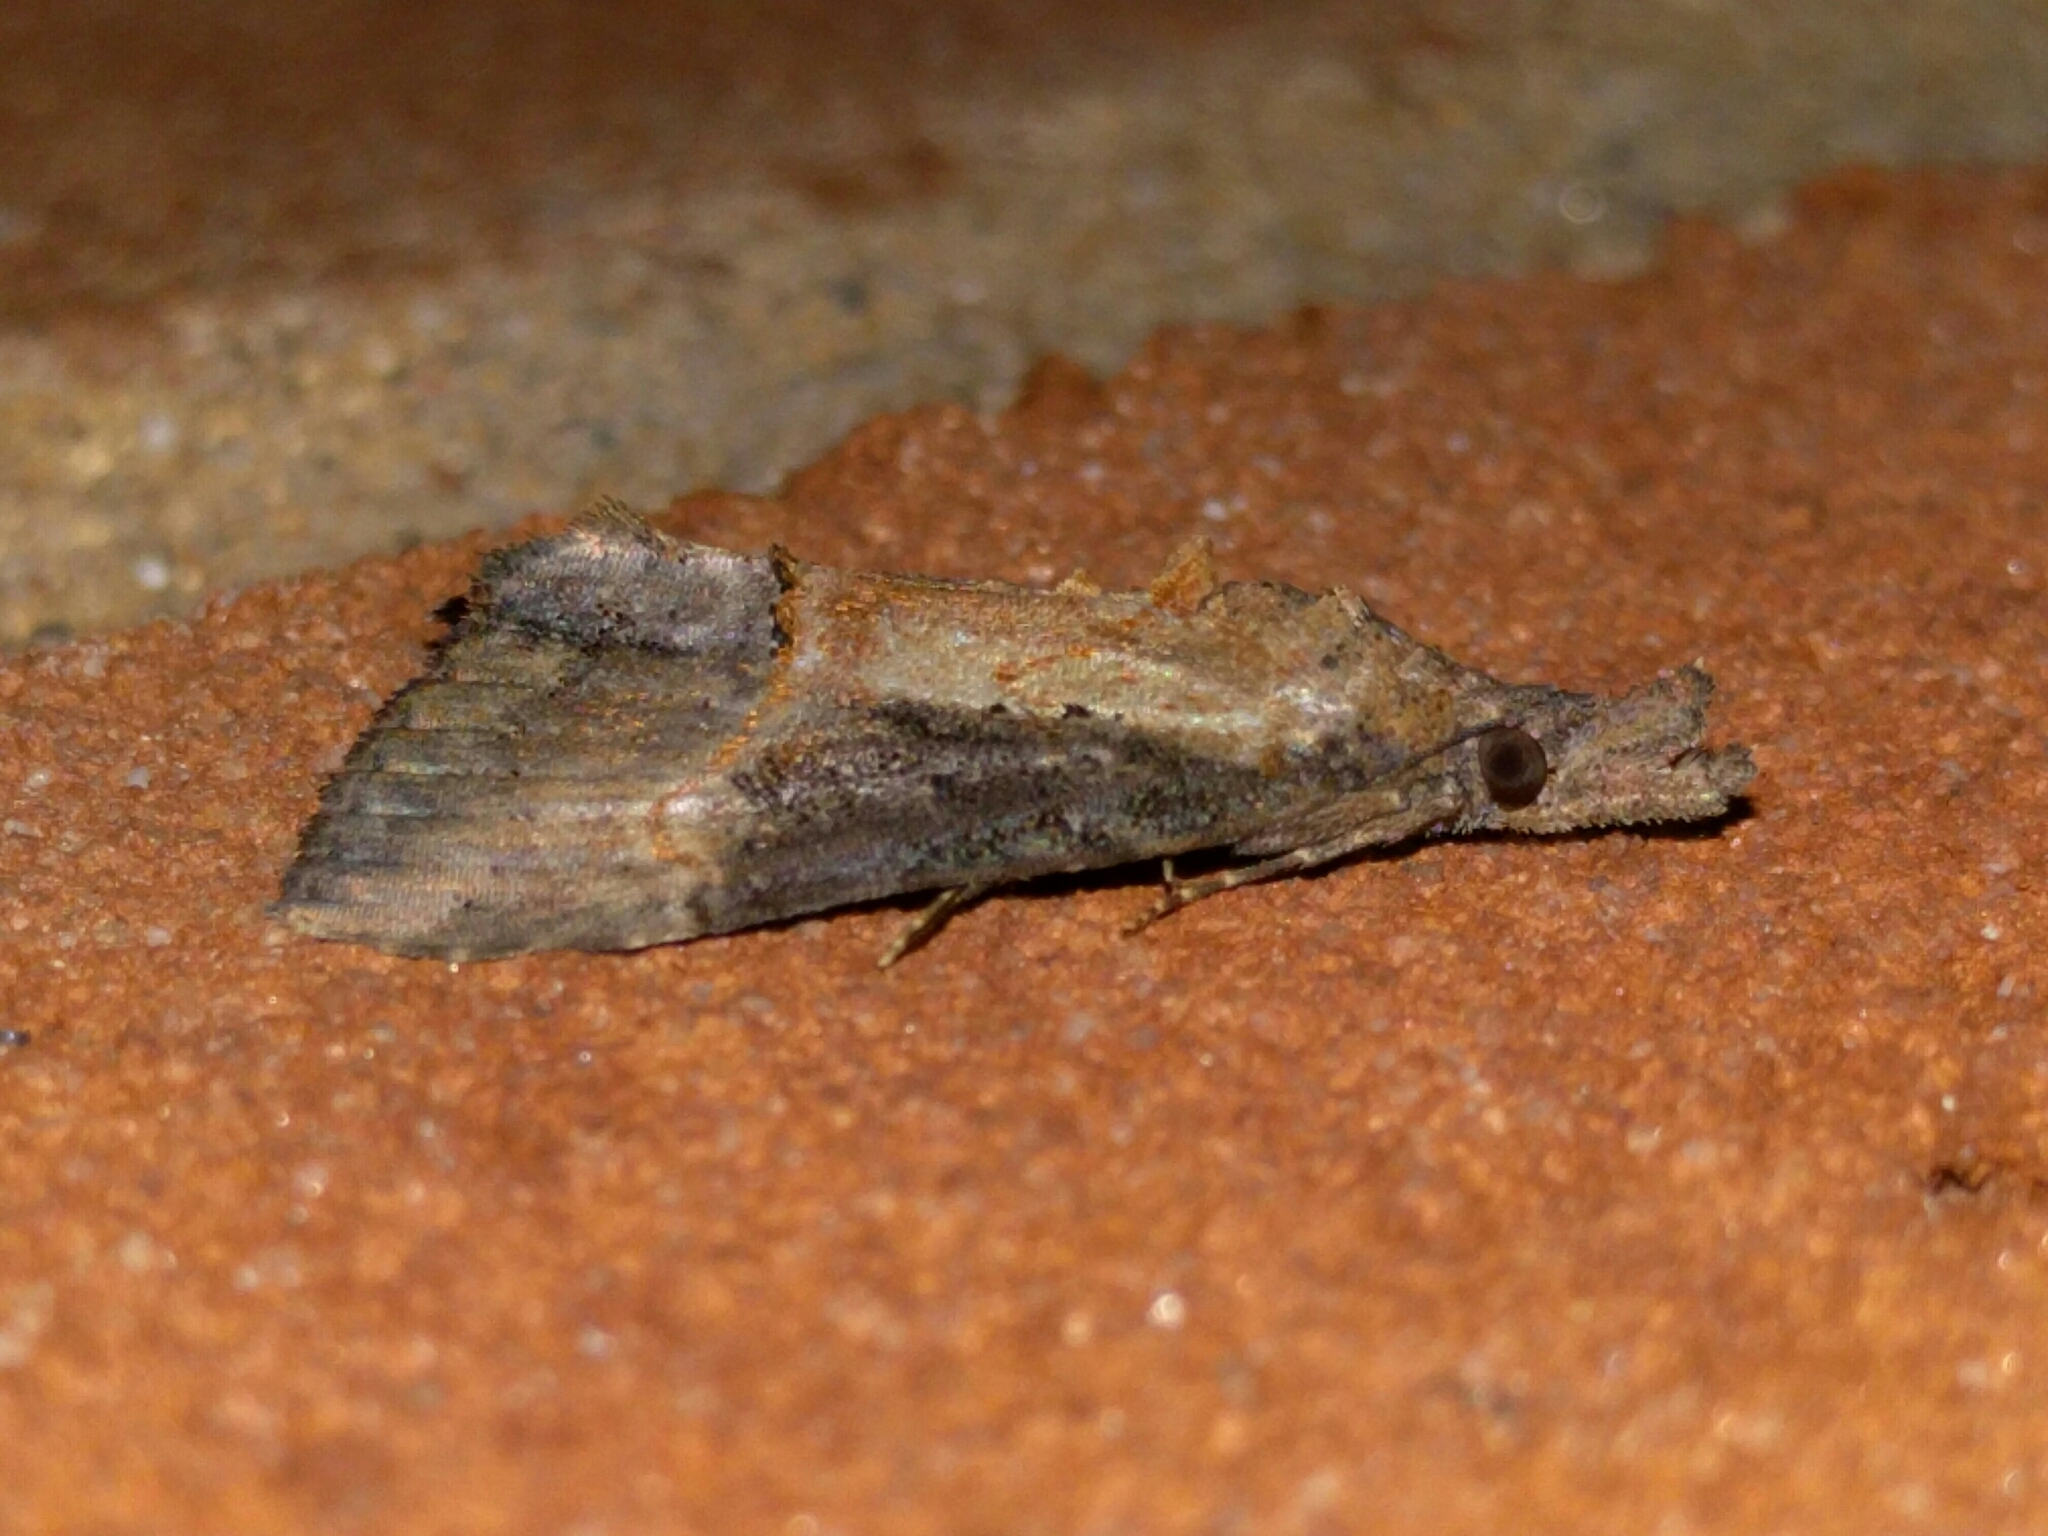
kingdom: Animalia
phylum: Arthropoda
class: Insecta
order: Lepidoptera
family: Erebidae
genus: Hypena
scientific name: Hypena scabra
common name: Green cloverworm
